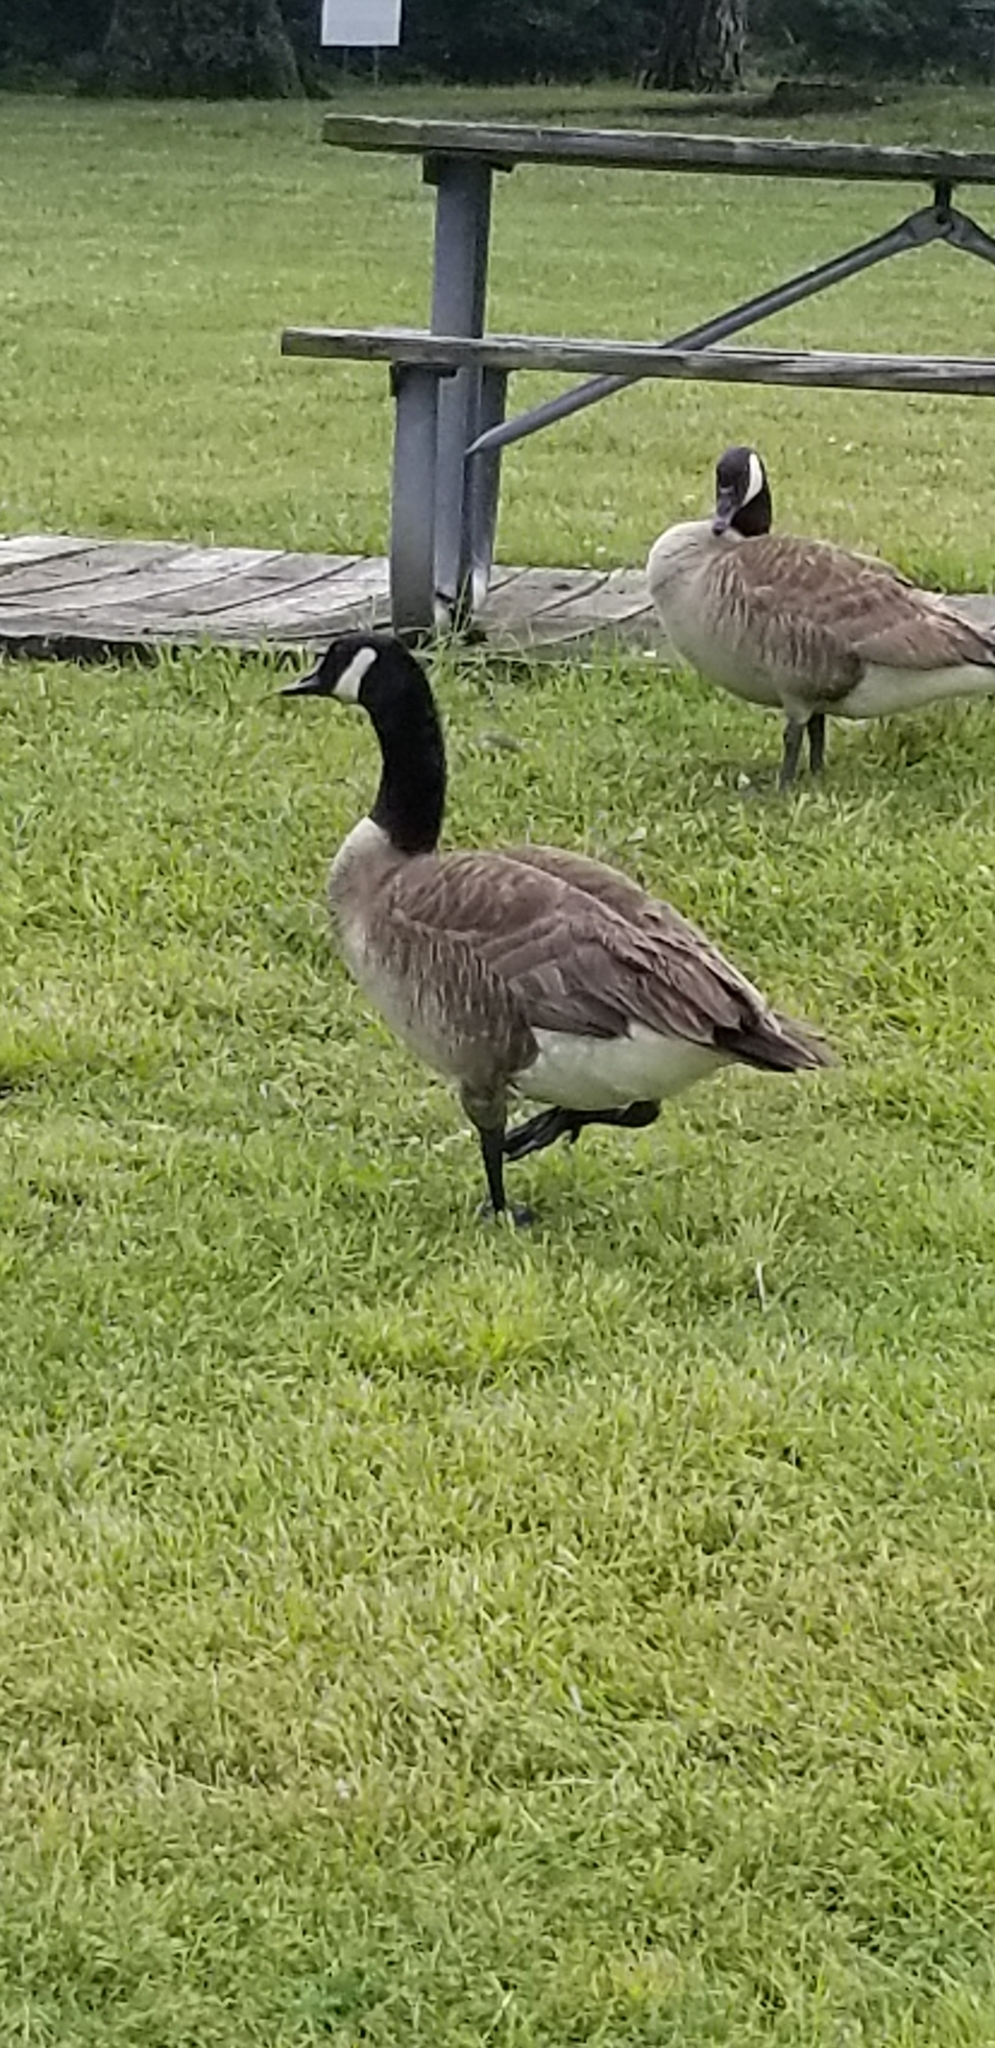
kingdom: Animalia
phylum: Chordata
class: Aves
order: Anseriformes
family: Anatidae
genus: Branta
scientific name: Branta canadensis
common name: Canada goose
